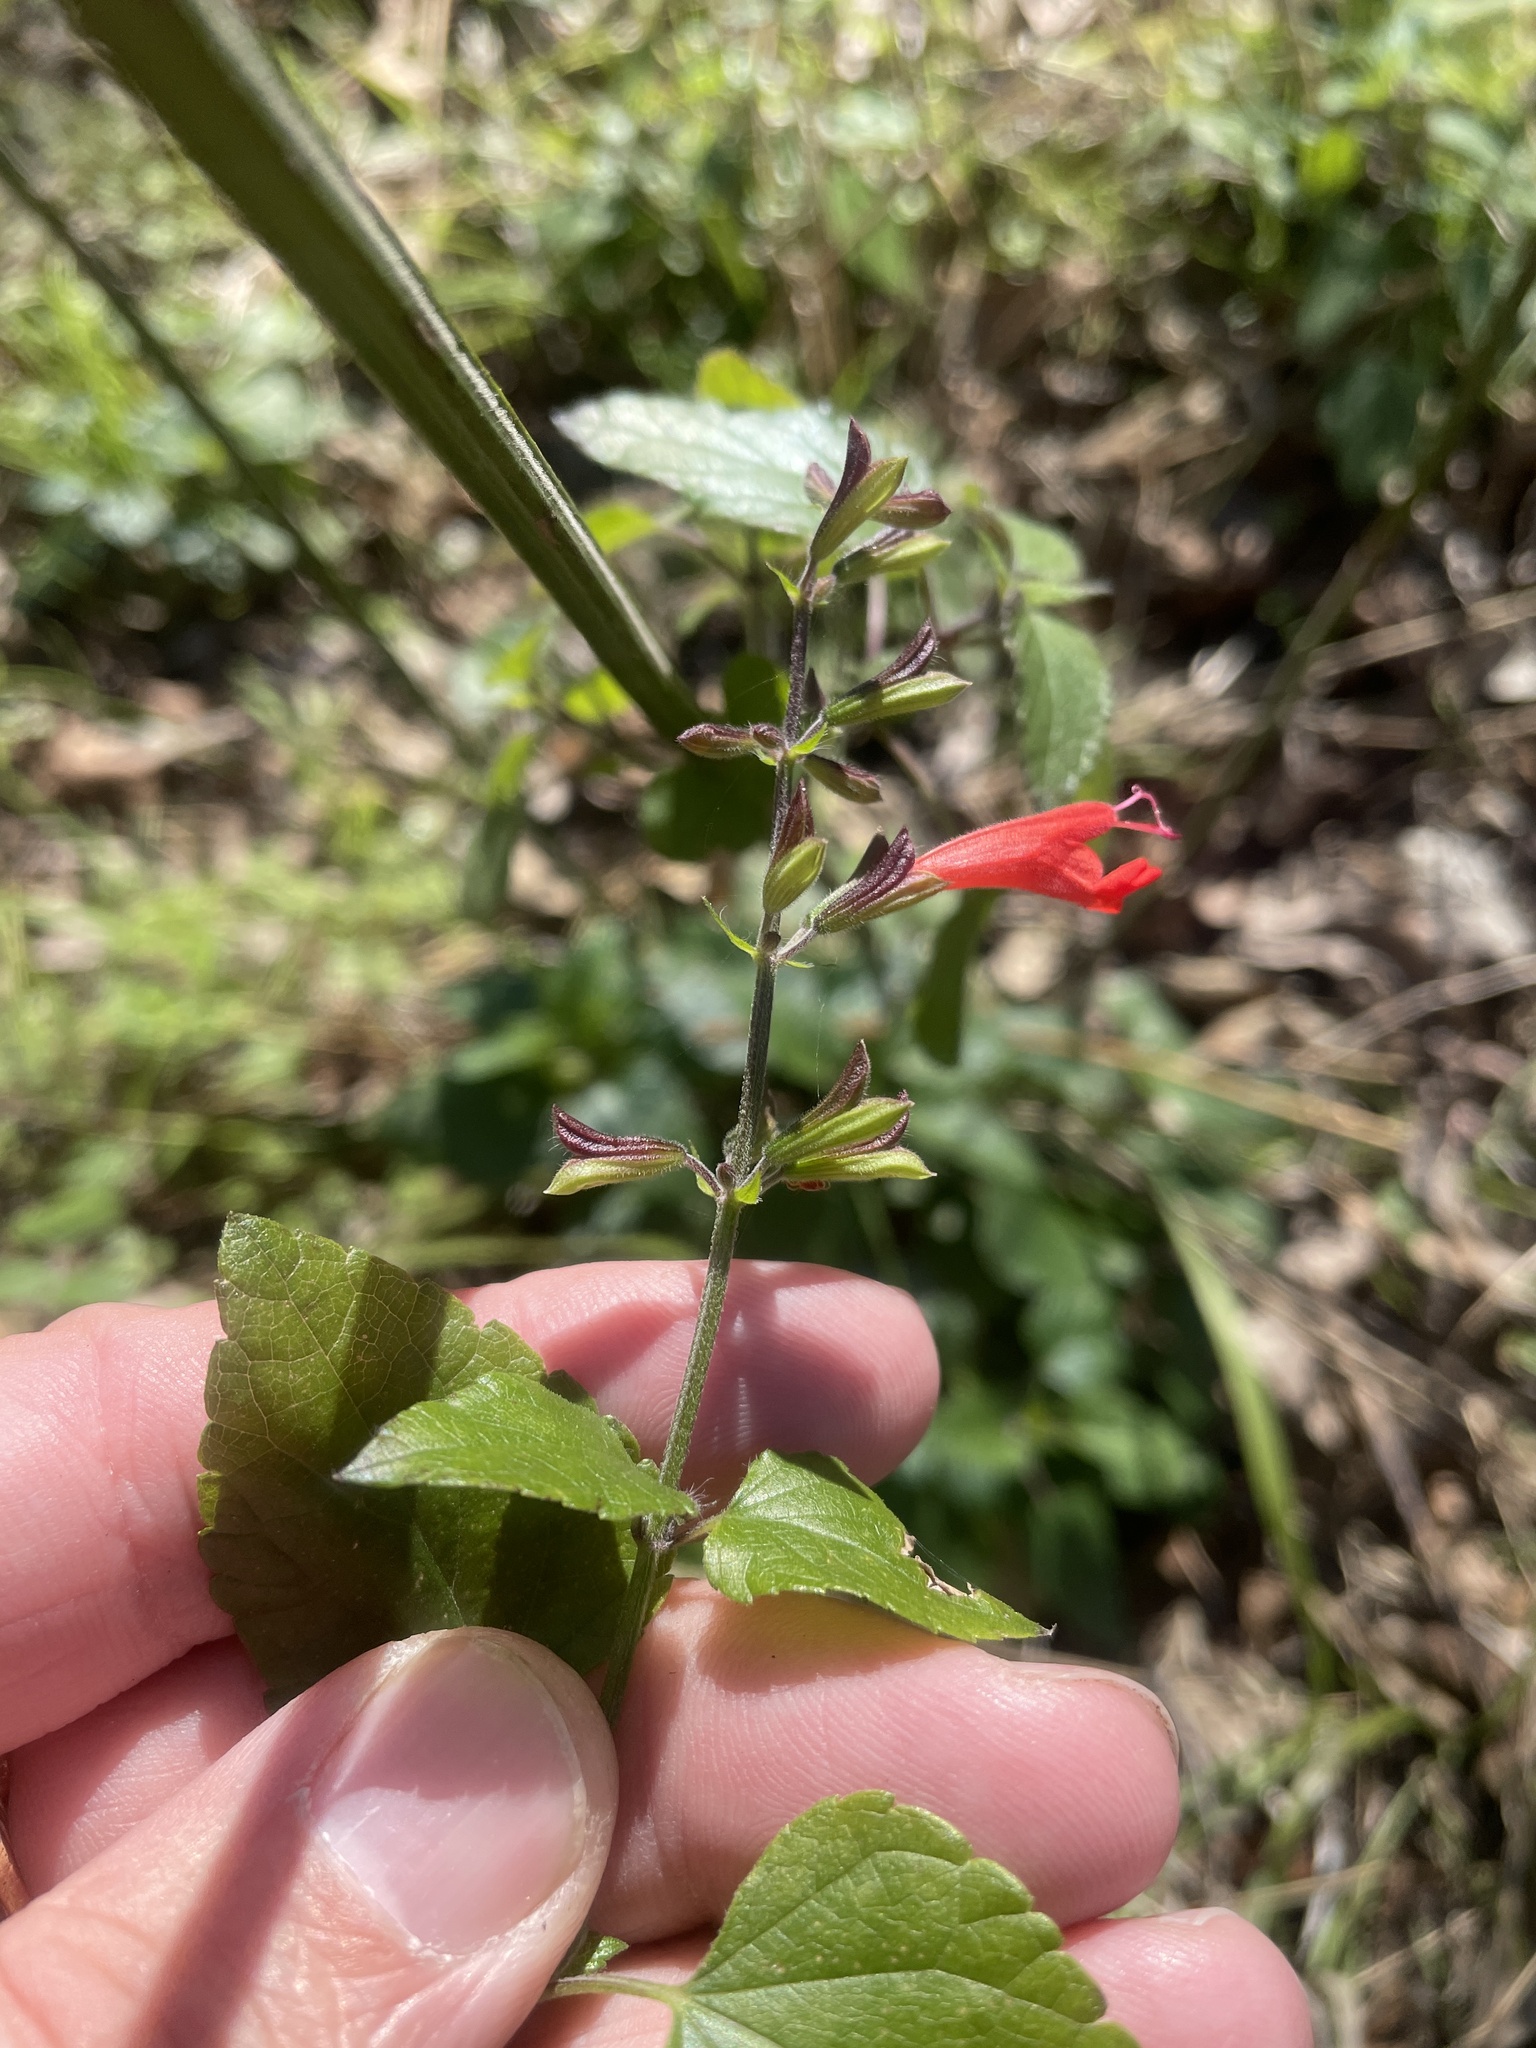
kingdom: Plantae
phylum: Tracheophyta
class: Magnoliopsida
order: Lamiales
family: Lamiaceae
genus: Salvia
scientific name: Salvia coccinea
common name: Blood sage
